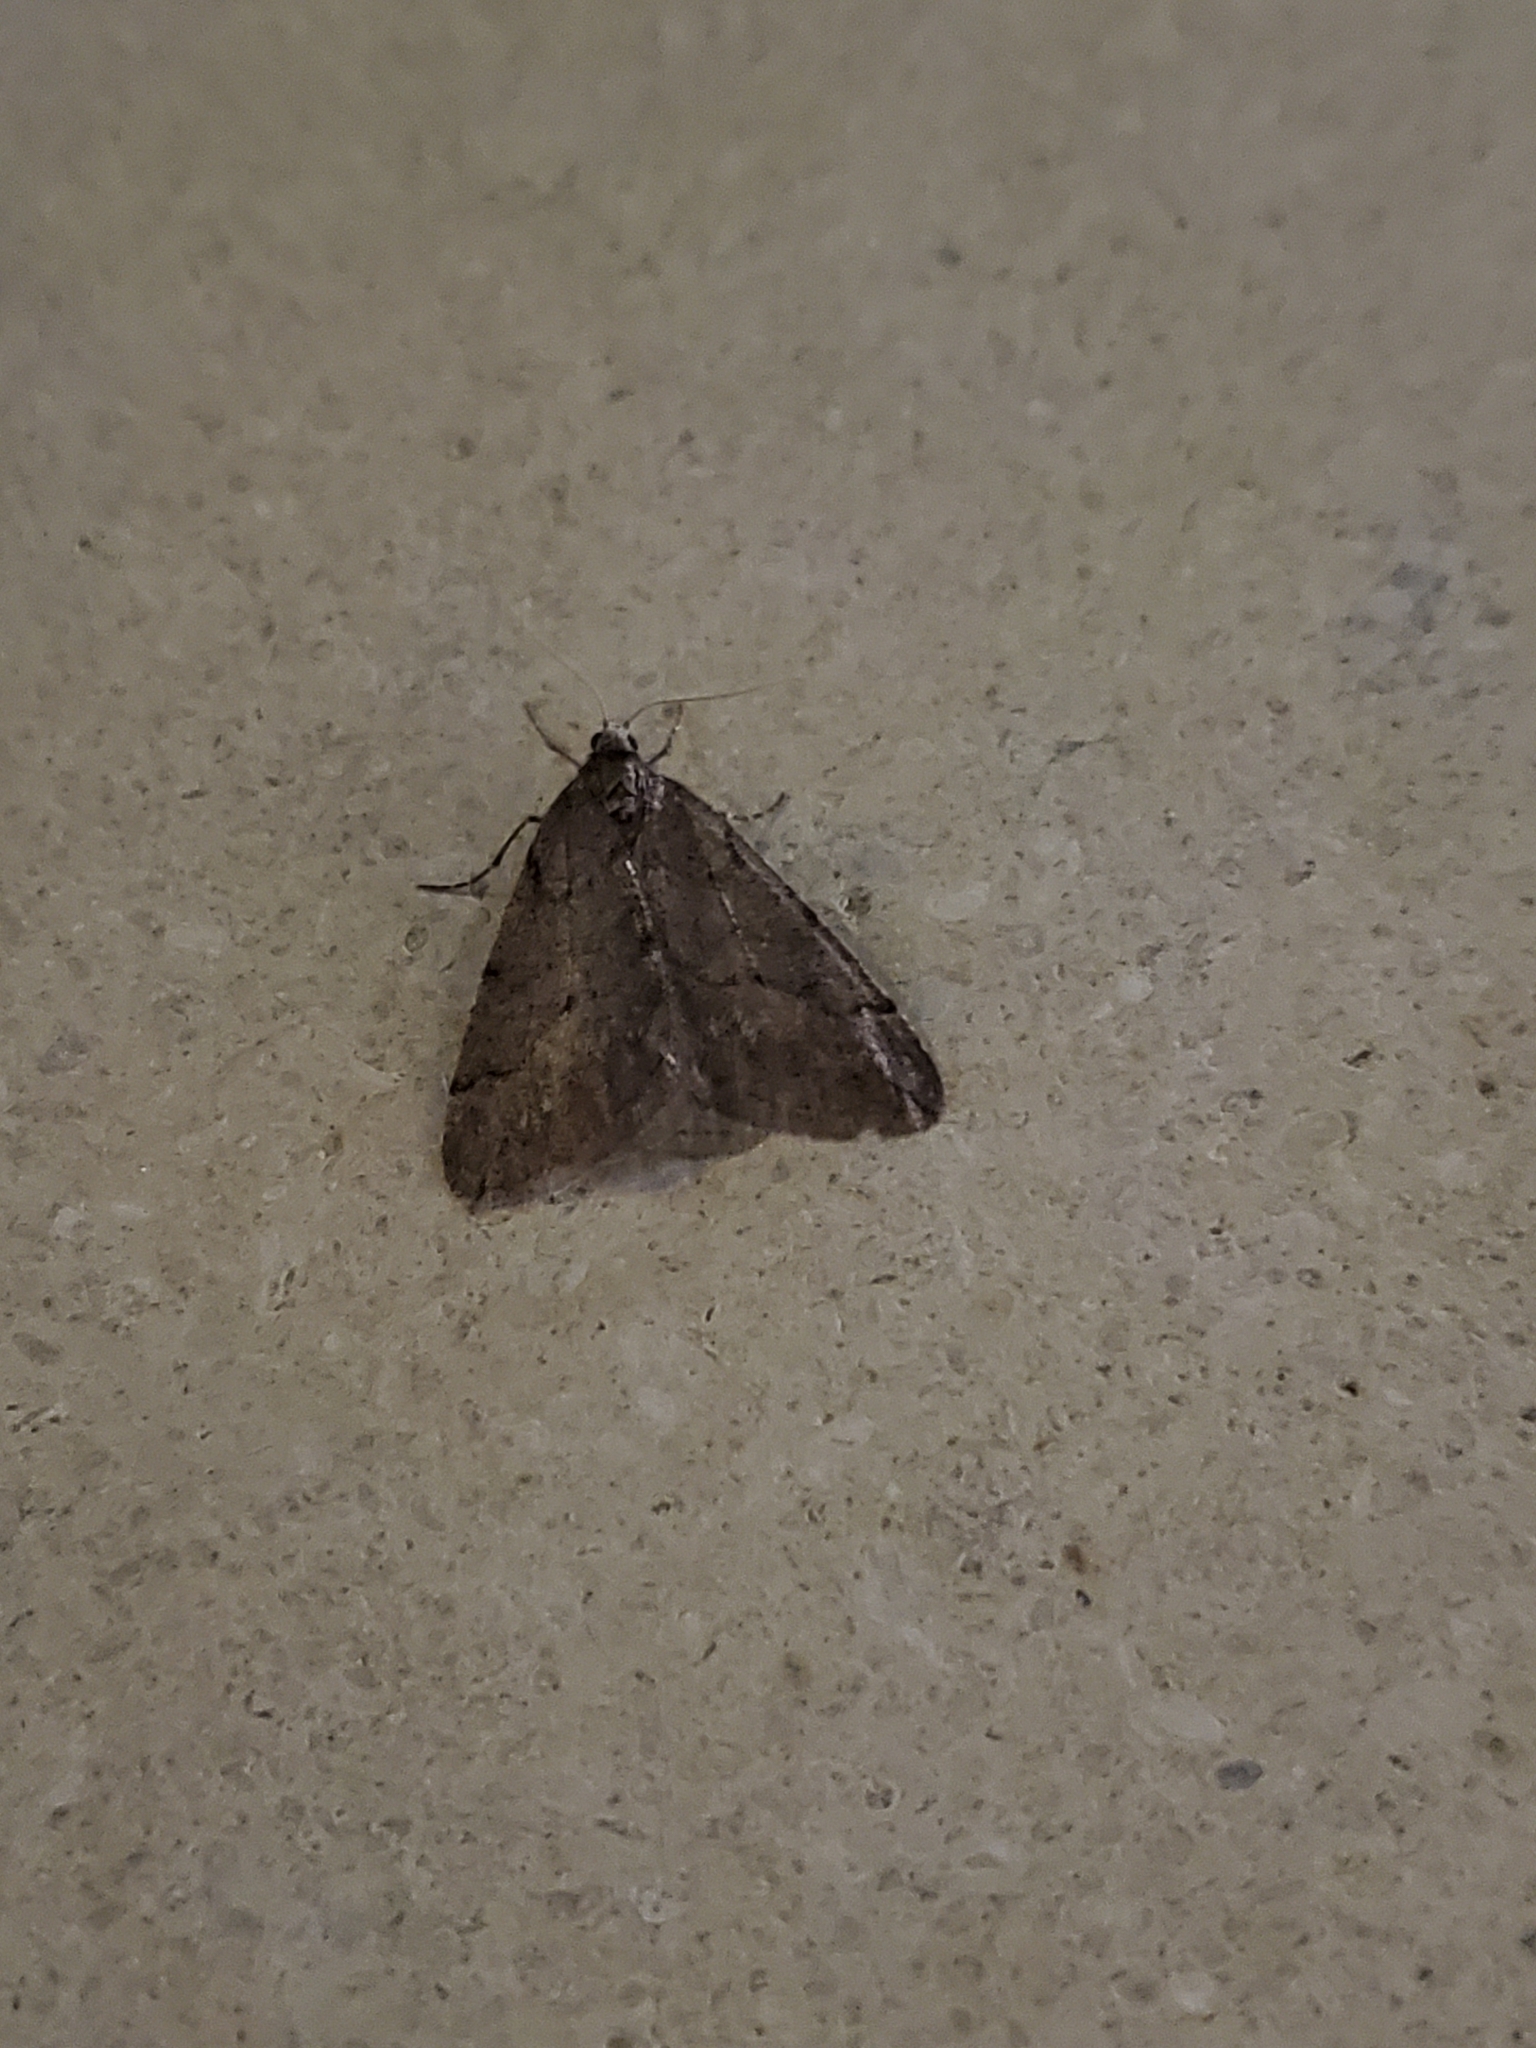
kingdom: Animalia
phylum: Arthropoda
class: Insecta
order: Lepidoptera
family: Geometridae
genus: Paleacrita
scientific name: Paleacrita vernata
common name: Spring cankerworm
